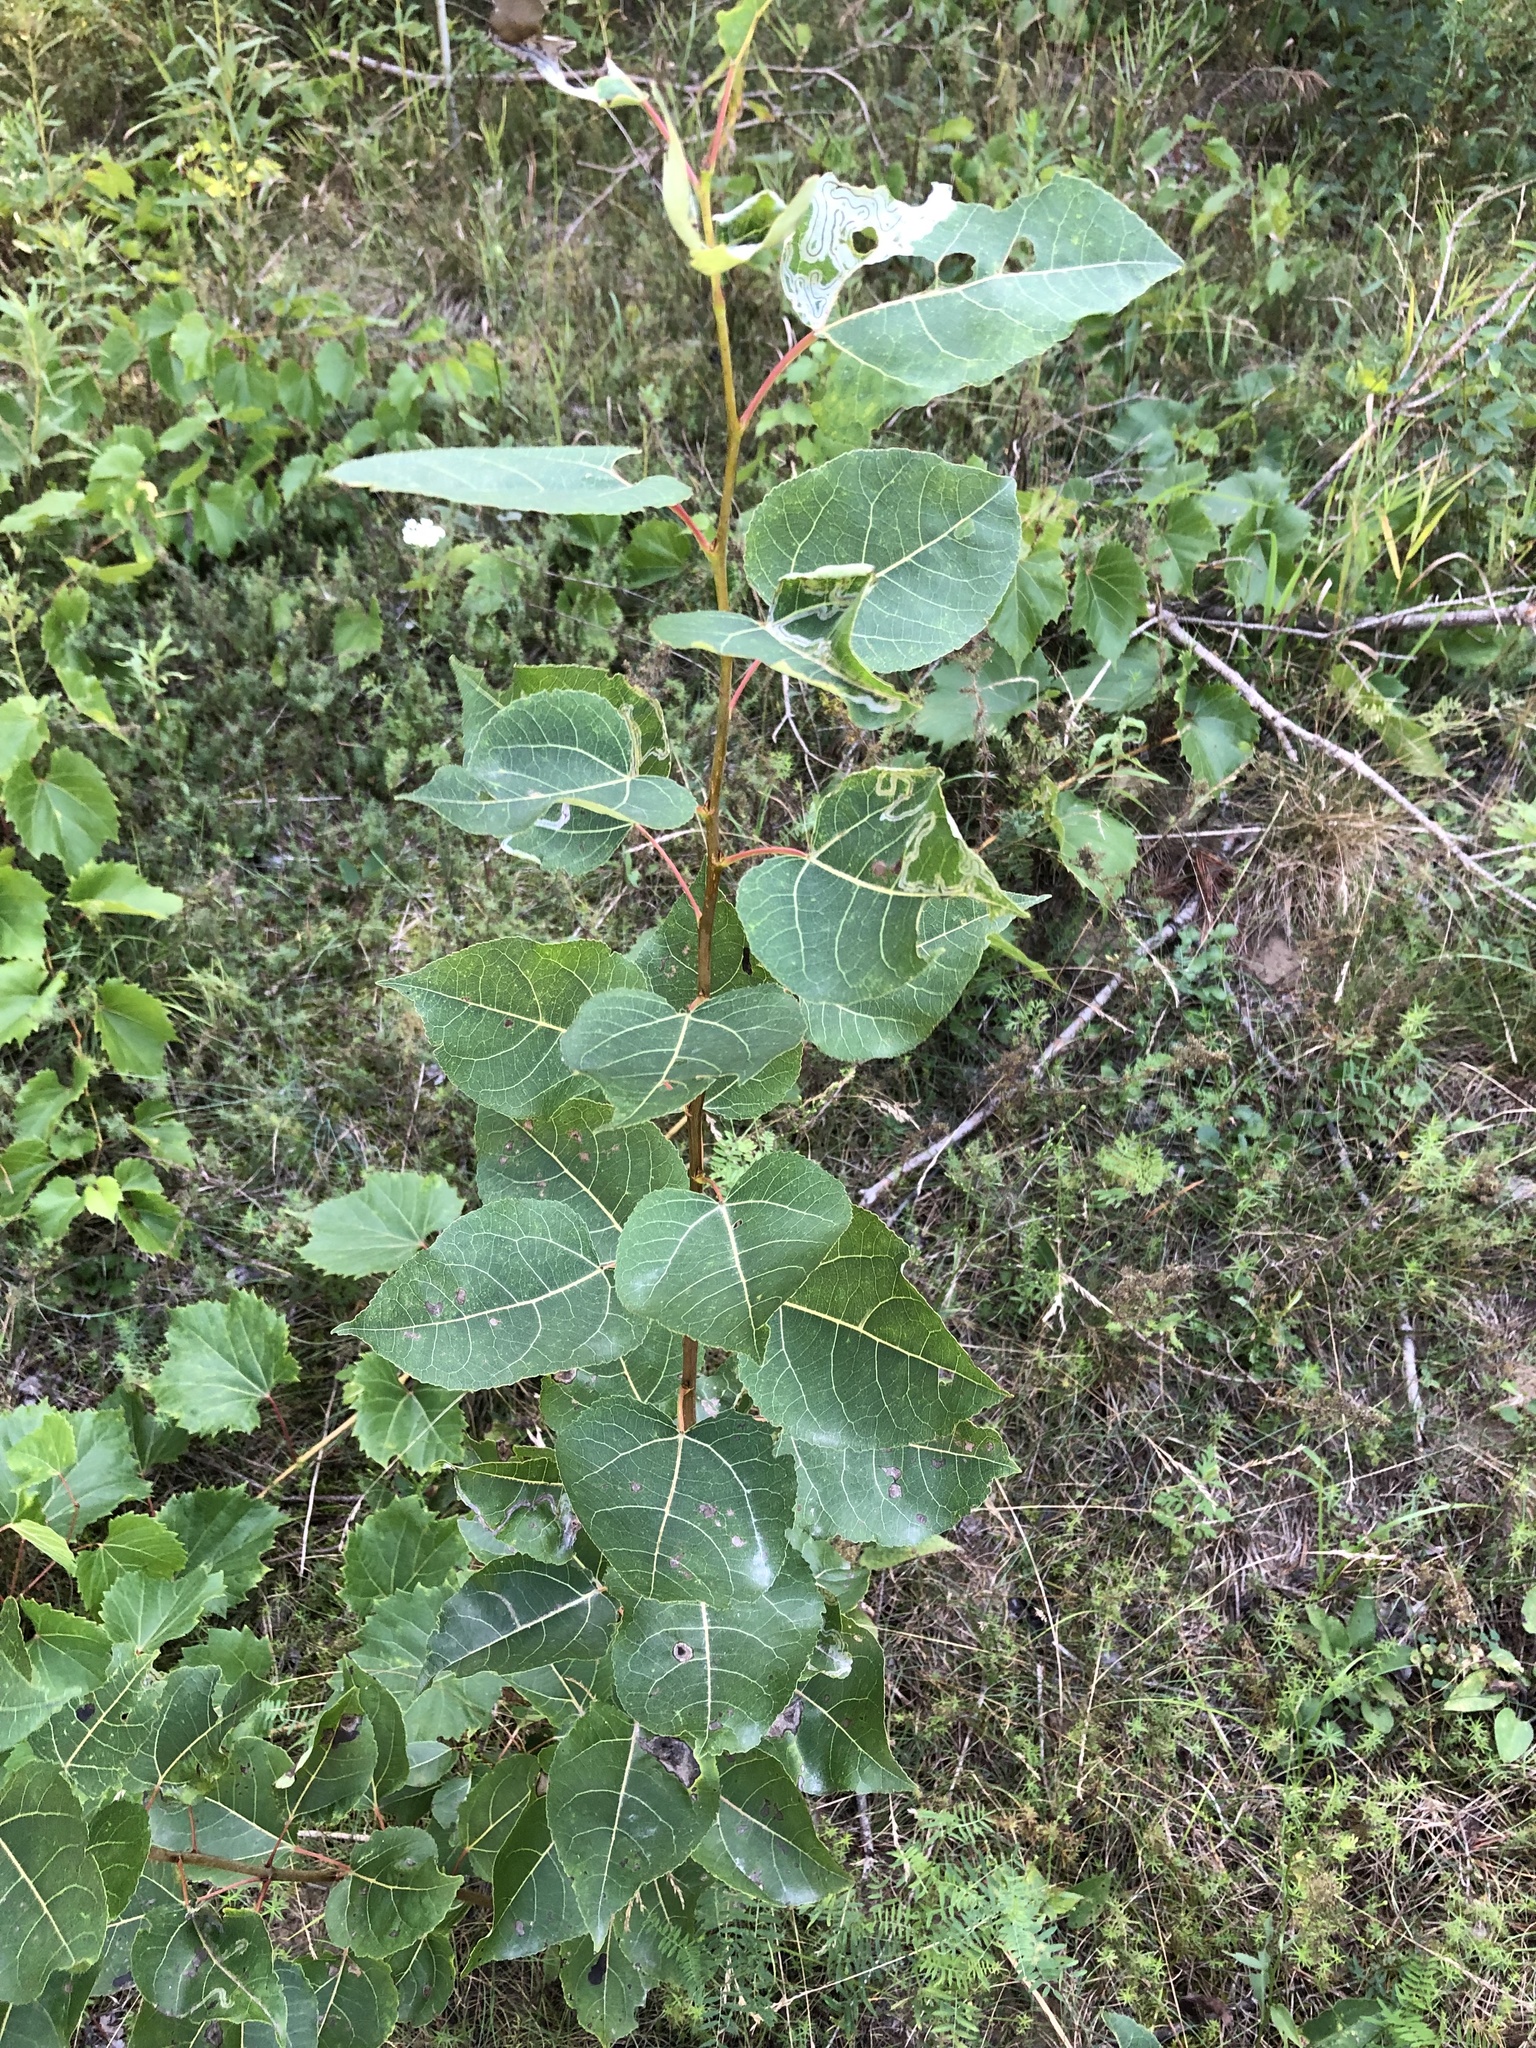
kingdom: Plantae
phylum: Tracheophyta
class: Magnoliopsida
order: Malpighiales
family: Salicaceae
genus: Populus
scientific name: Populus tremuloides
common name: Quaking aspen
